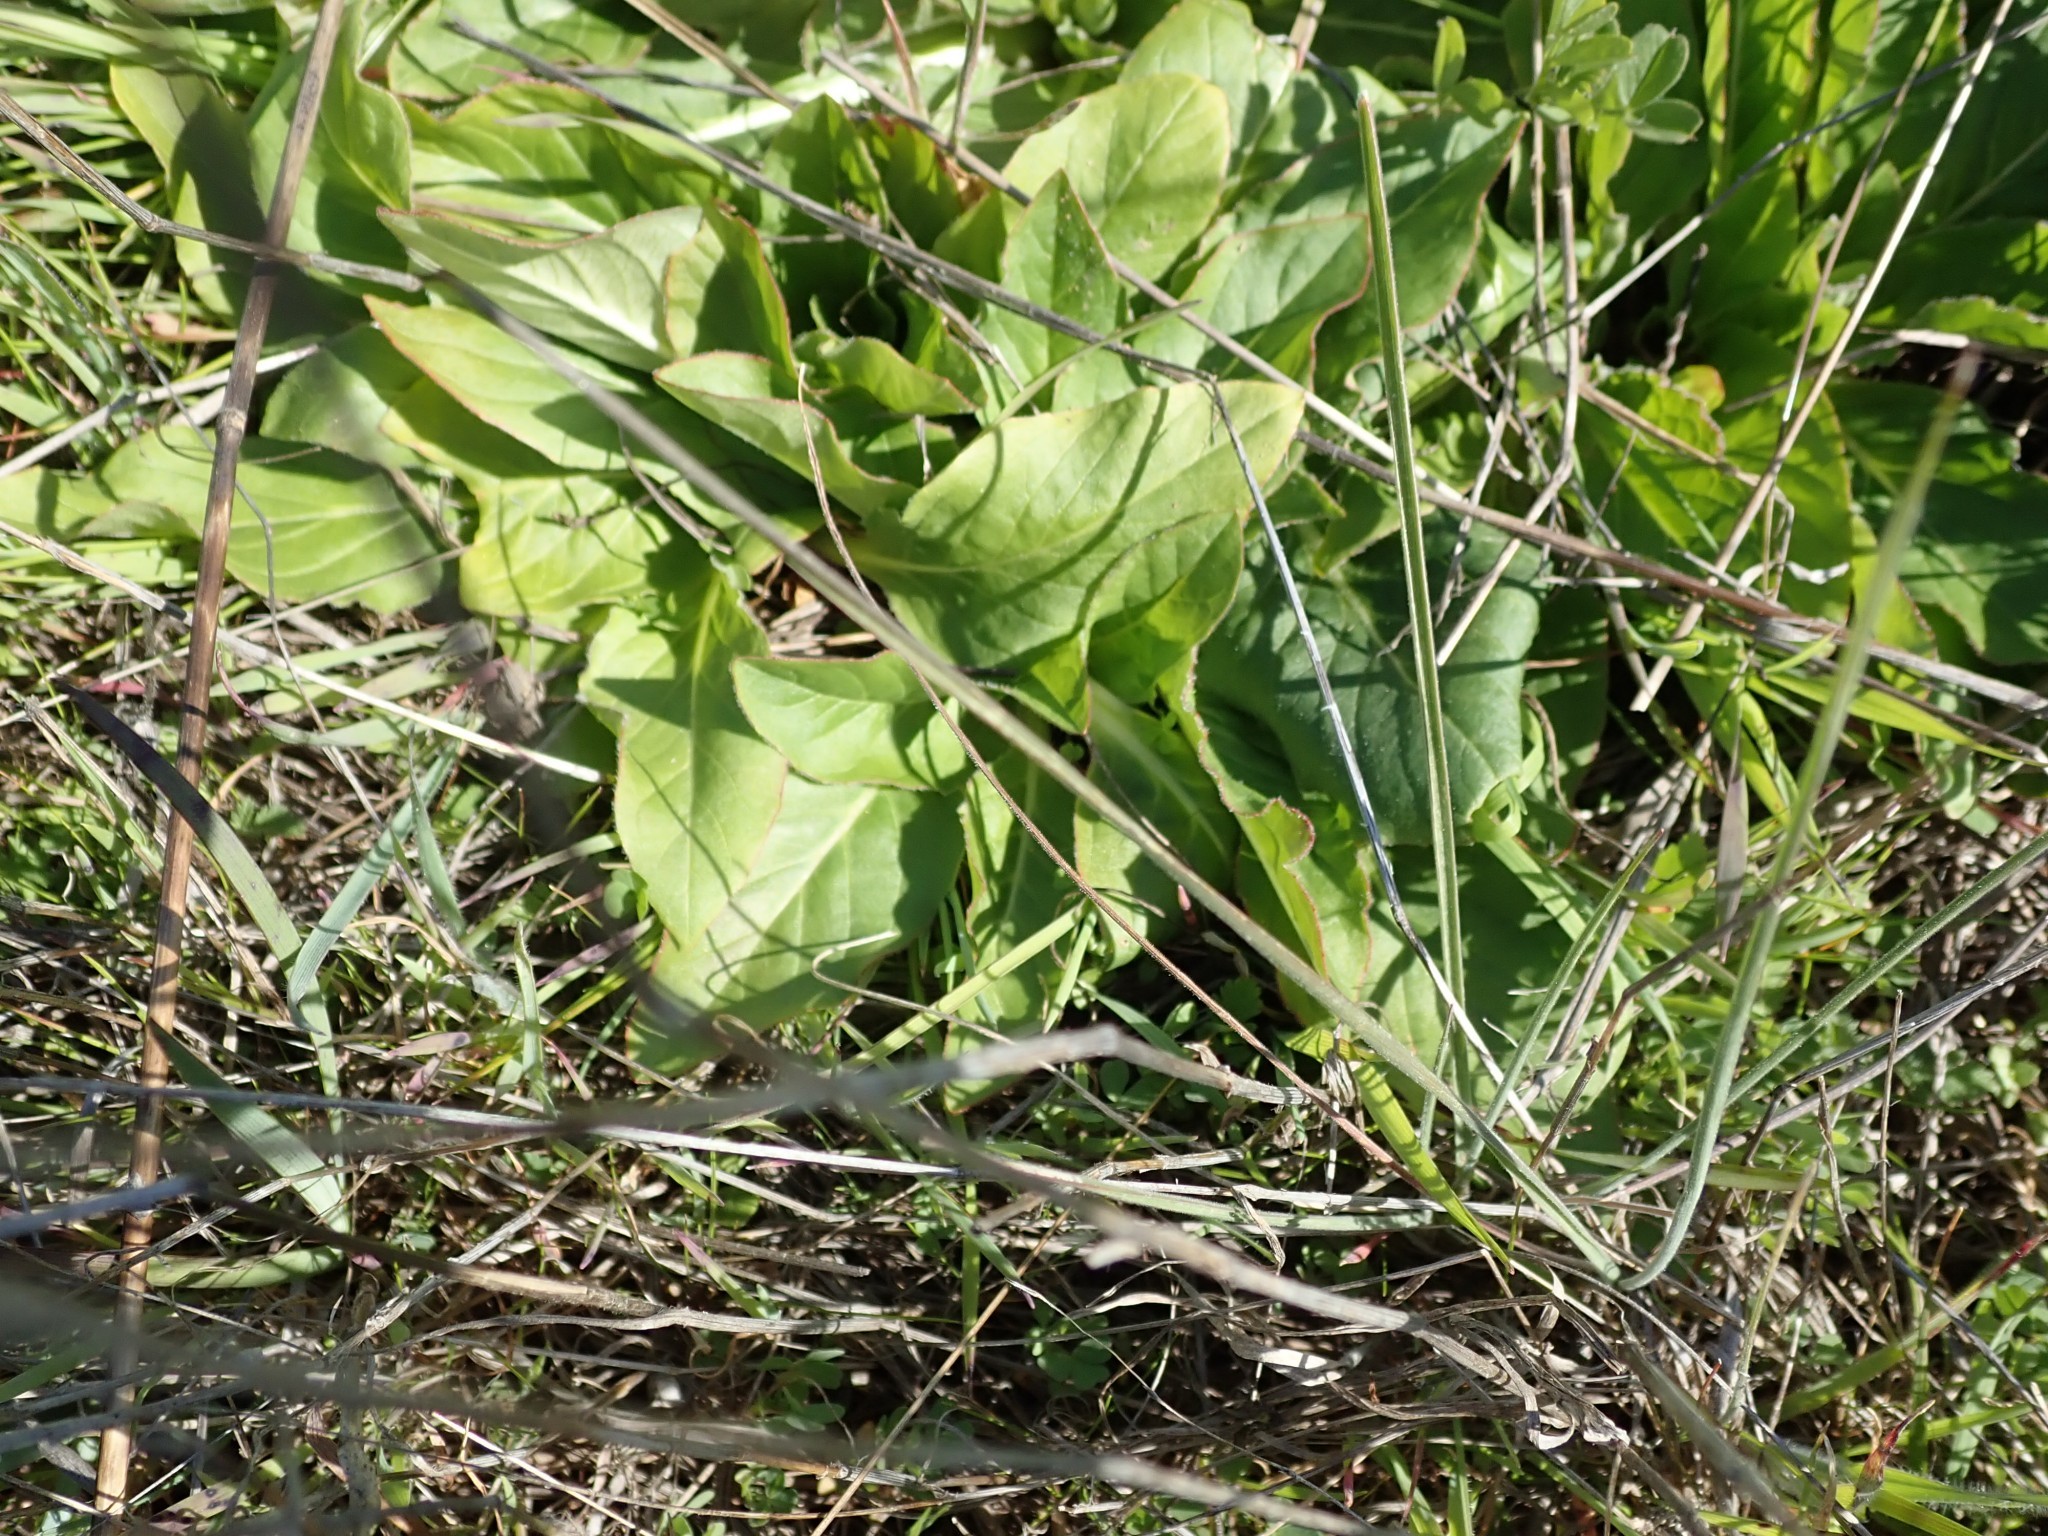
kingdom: Plantae
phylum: Tracheophyta
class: Magnoliopsida
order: Myrtales
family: Onagraceae
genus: Taraxia
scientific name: Taraxia ovata
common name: Goldeneggs
